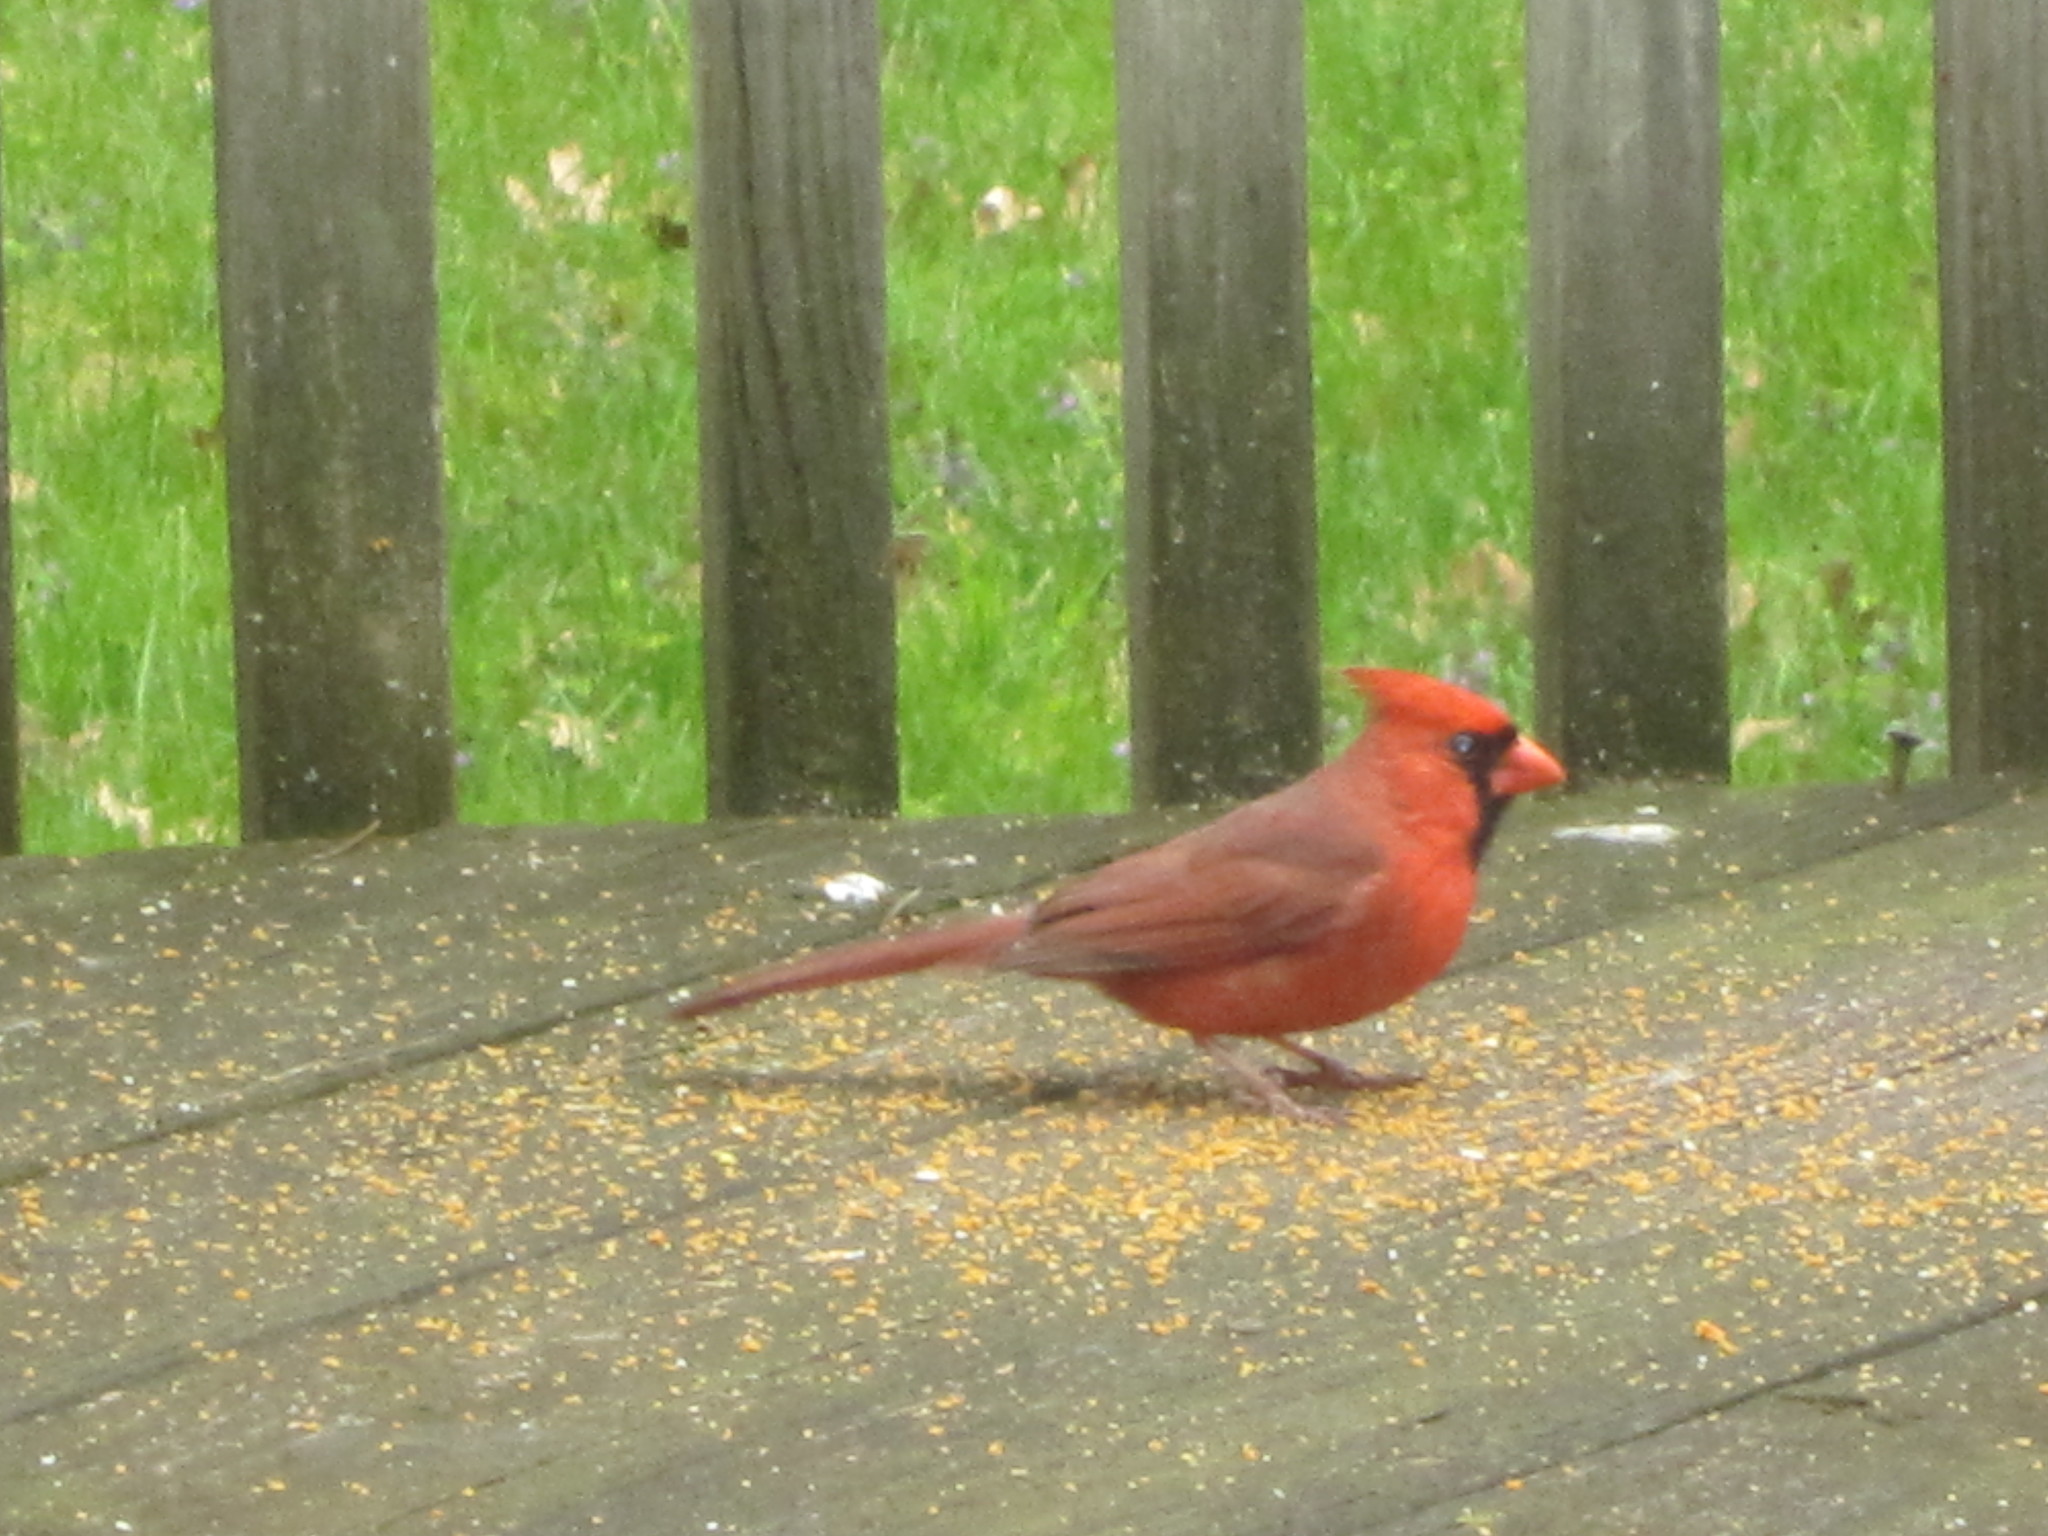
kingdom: Animalia
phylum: Chordata
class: Aves
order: Passeriformes
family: Cardinalidae
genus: Cardinalis
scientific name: Cardinalis cardinalis
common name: Northern cardinal
